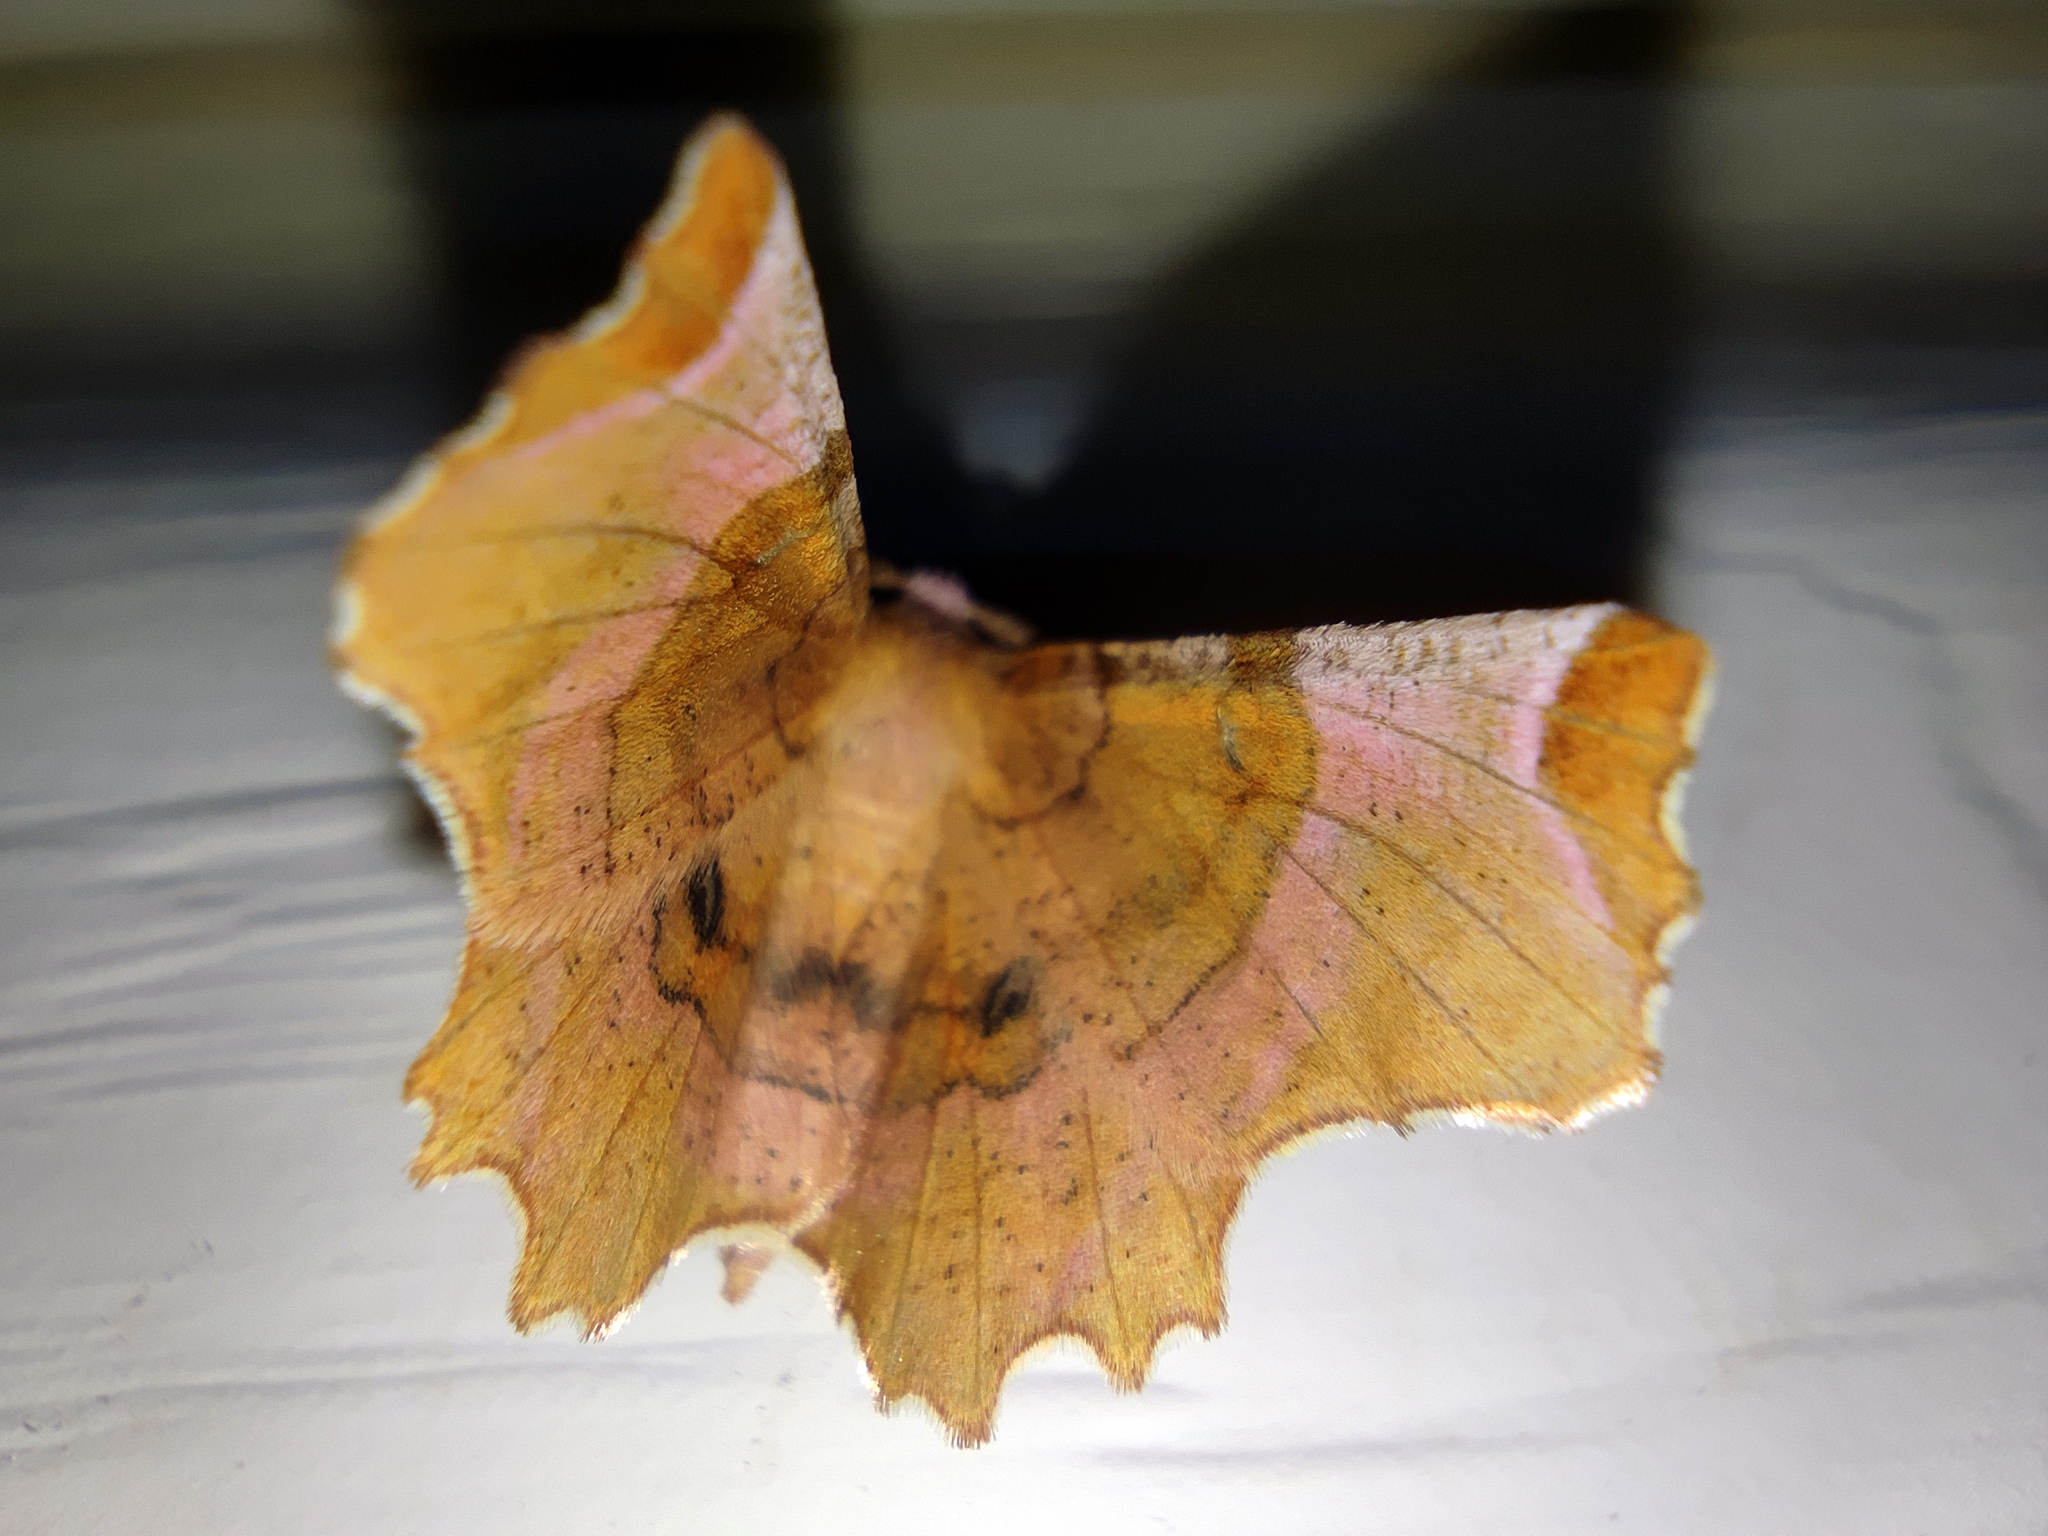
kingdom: Animalia
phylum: Arthropoda
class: Insecta
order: Lepidoptera
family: Geometridae
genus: Selenia
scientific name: Selenia lunularia
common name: Lunar thorn
